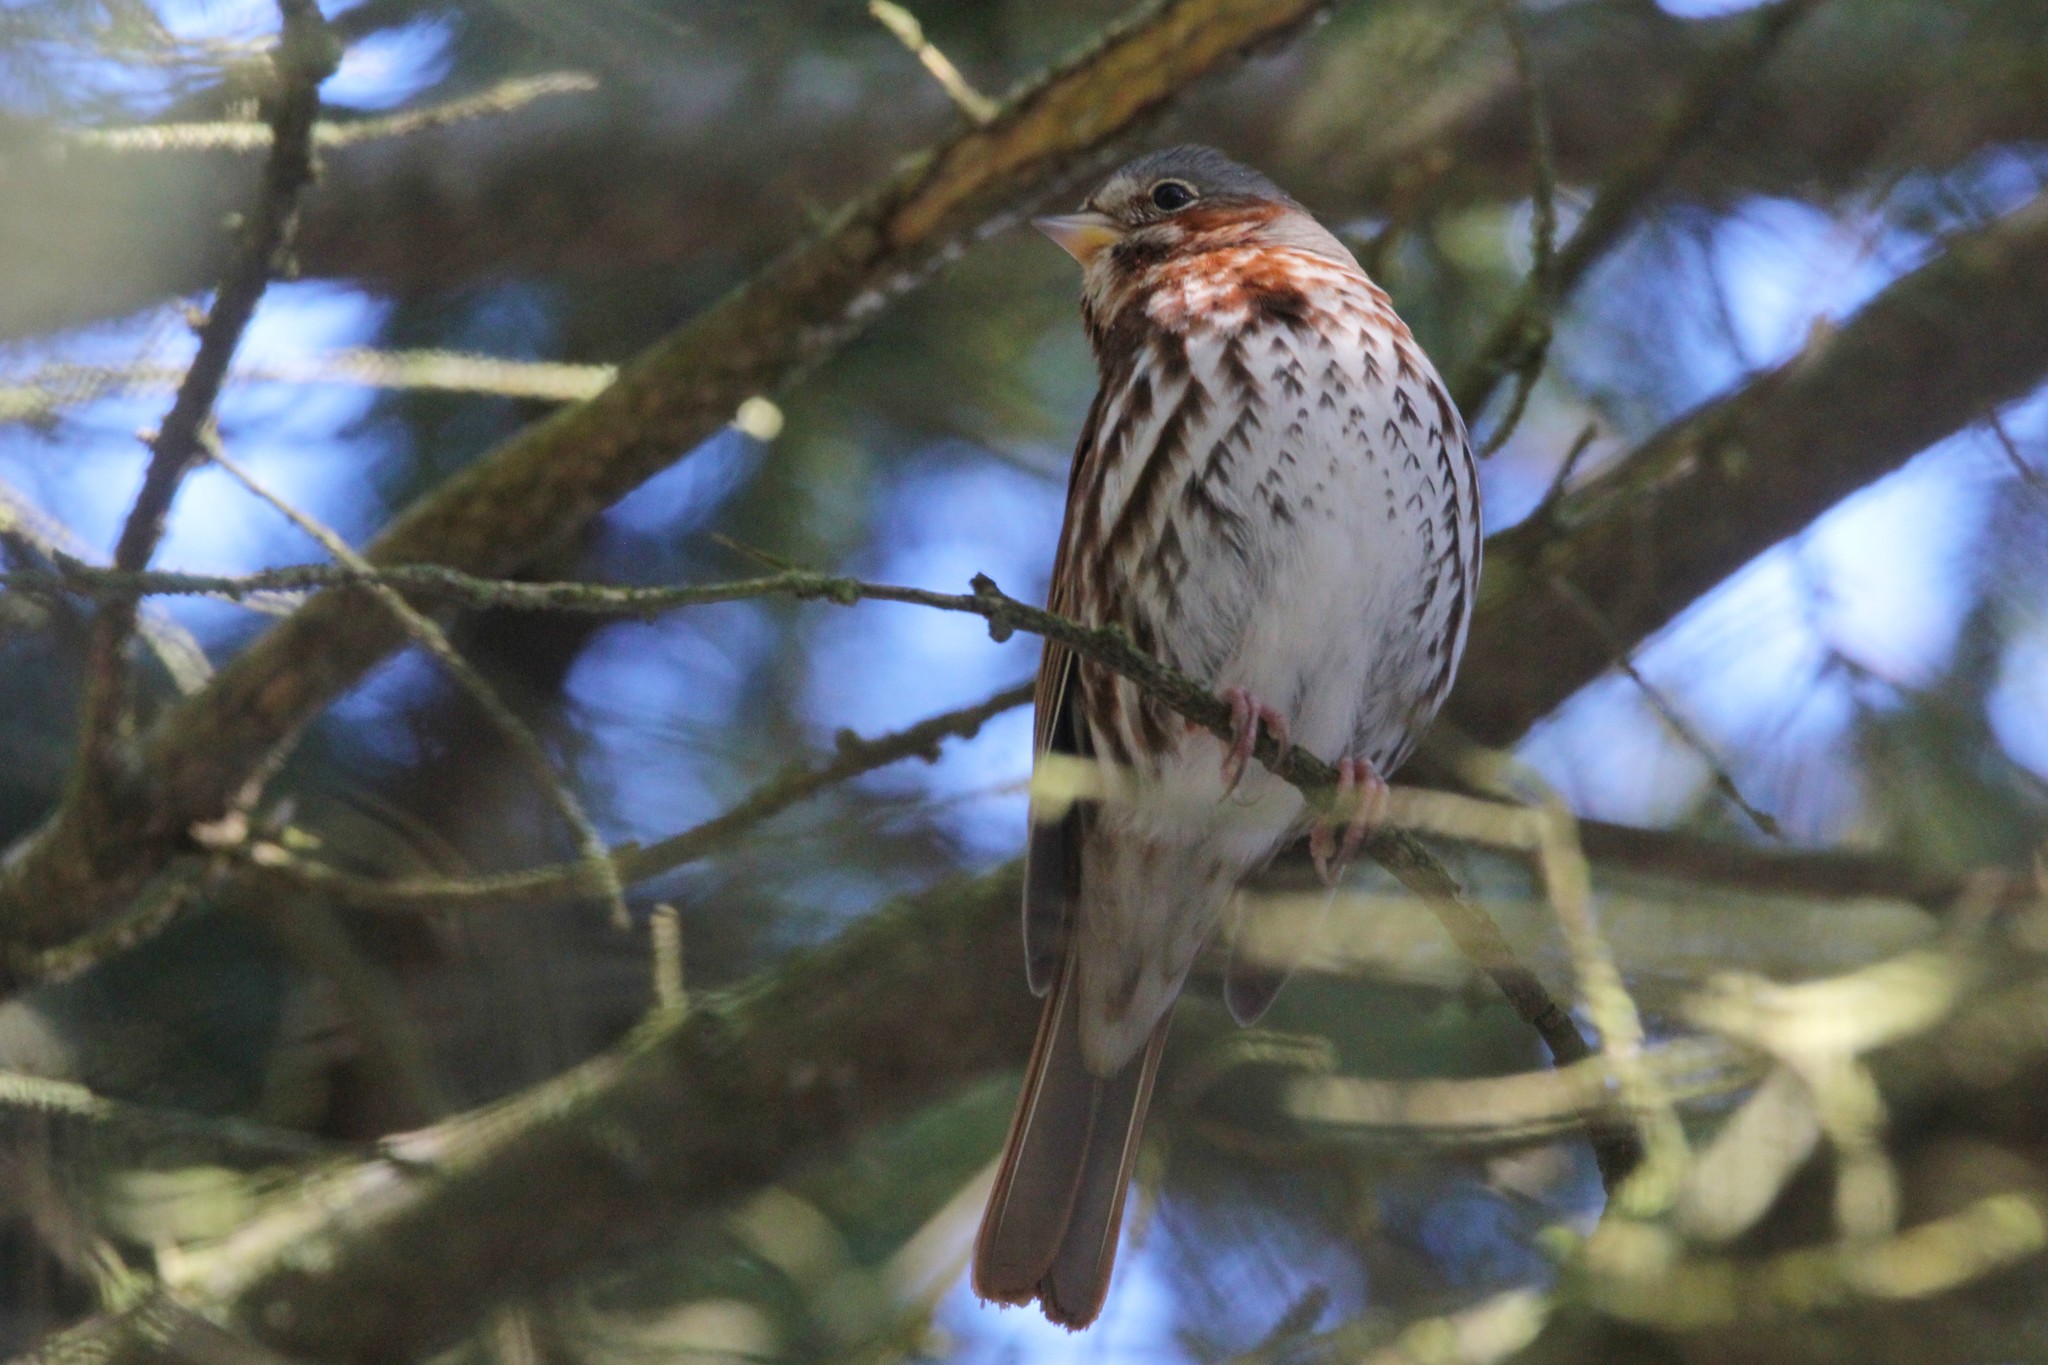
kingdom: Animalia
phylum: Chordata
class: Aves
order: Passeriformes
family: Passerellidae
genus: Passerella
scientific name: Passerella iliaca
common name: Fox sparrow
